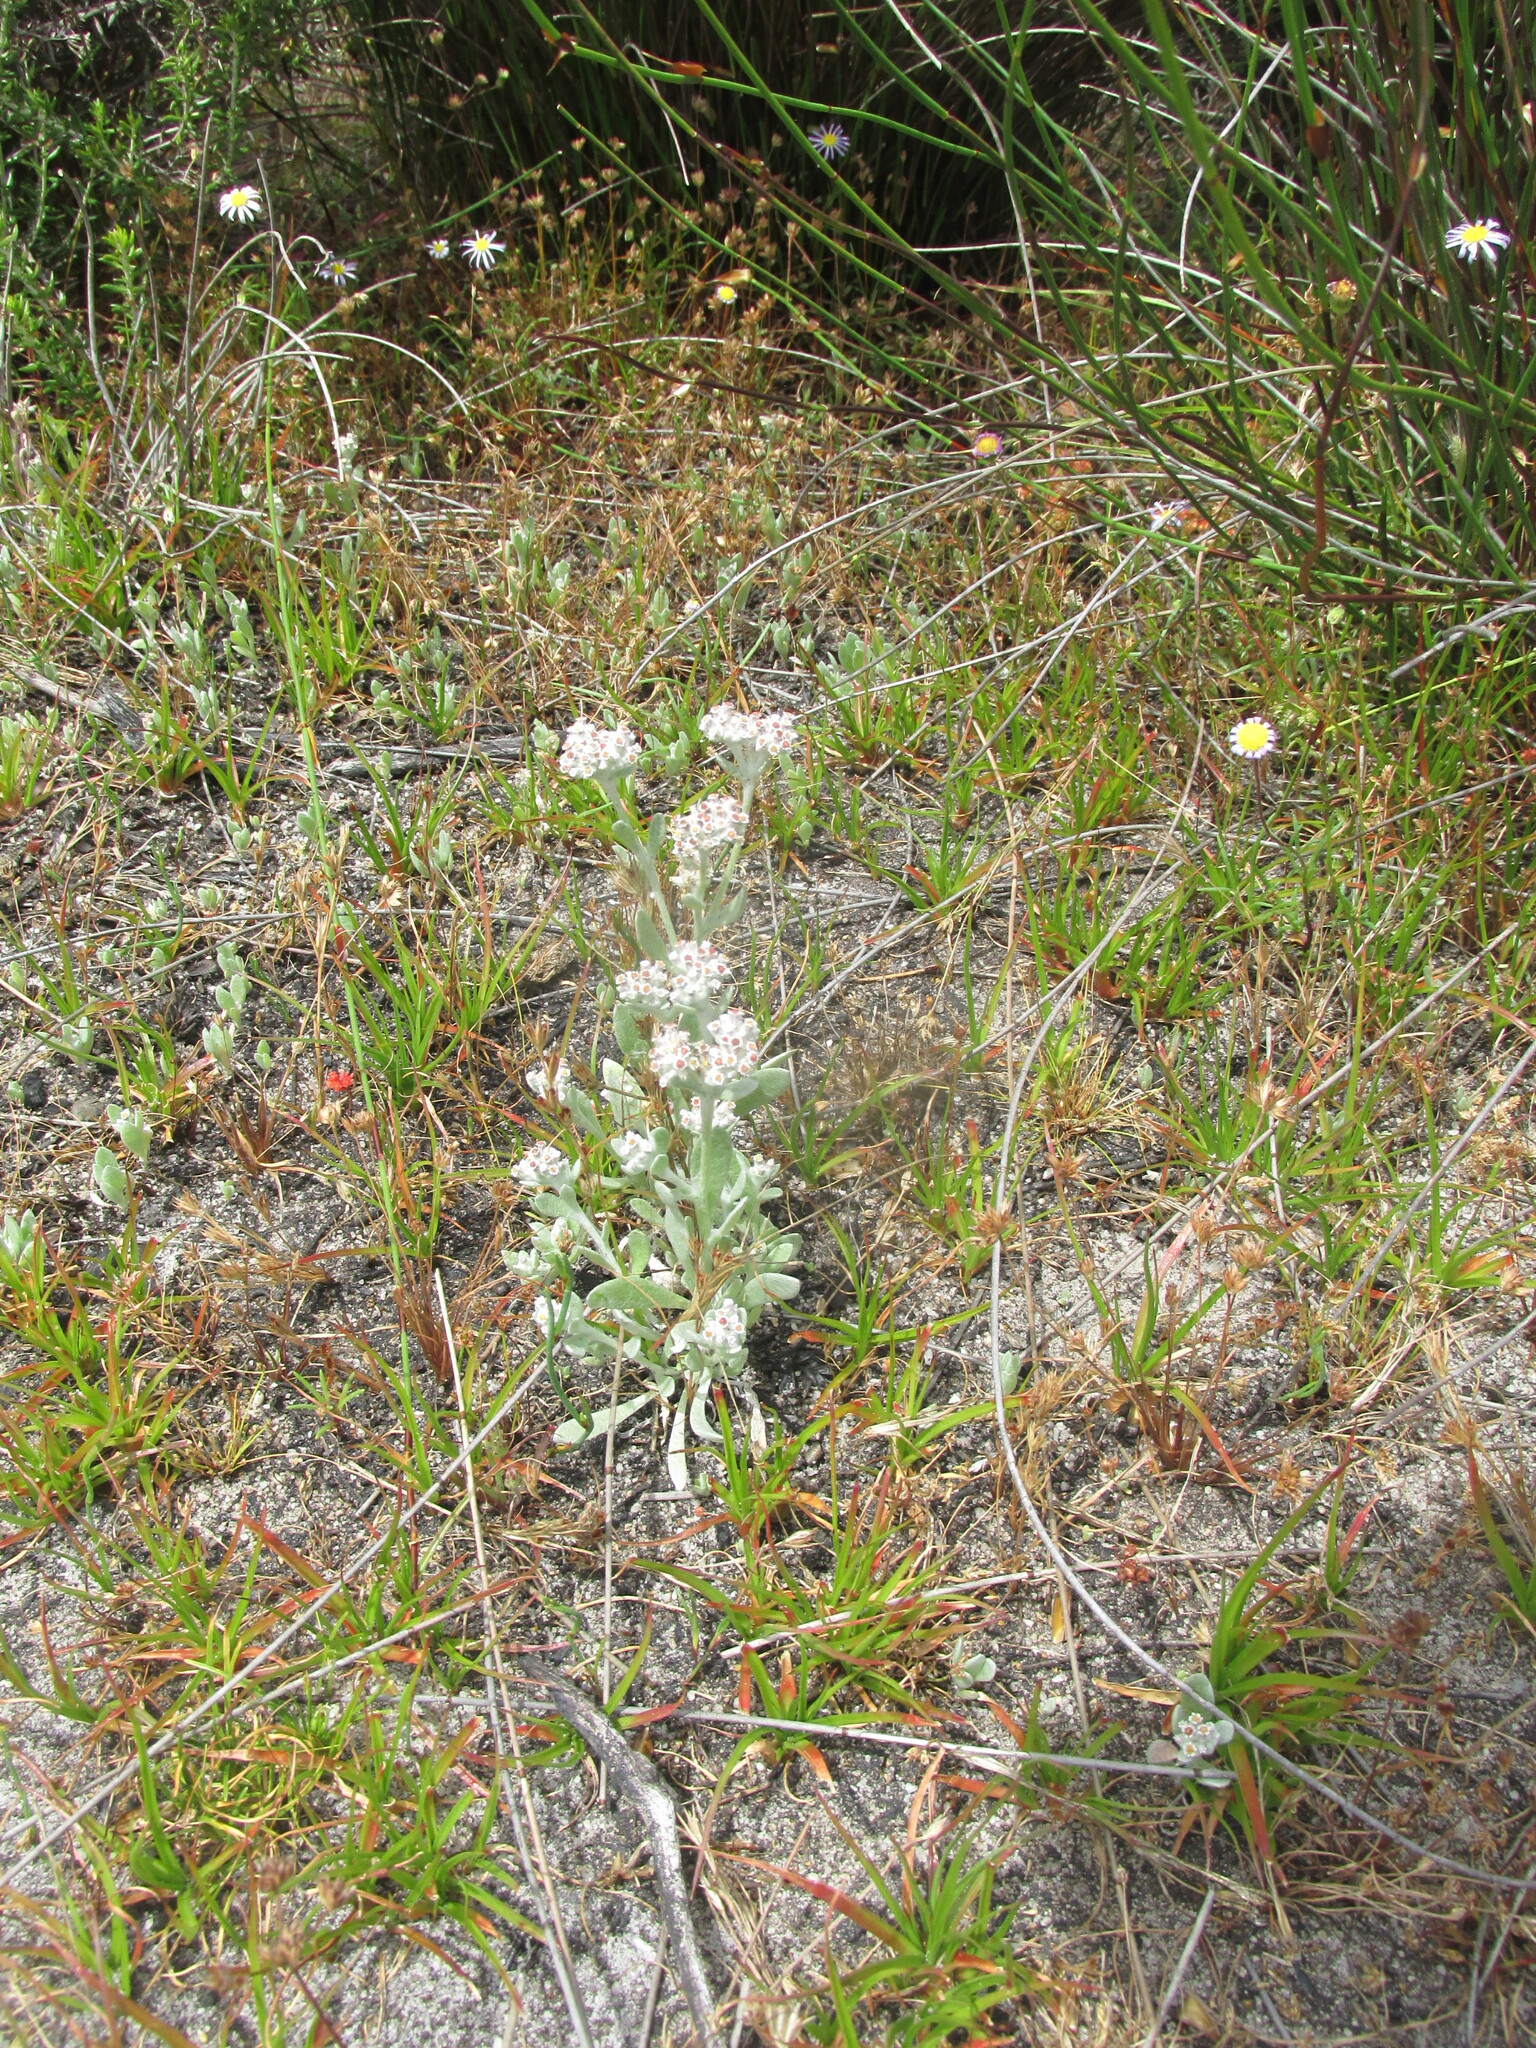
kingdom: Plantae
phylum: Tracheophyta
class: Magnoliopsida
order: Asterales
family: Asteraceae
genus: Vellereophyton
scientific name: Vellereophyton dealbatum
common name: White-cudweed
